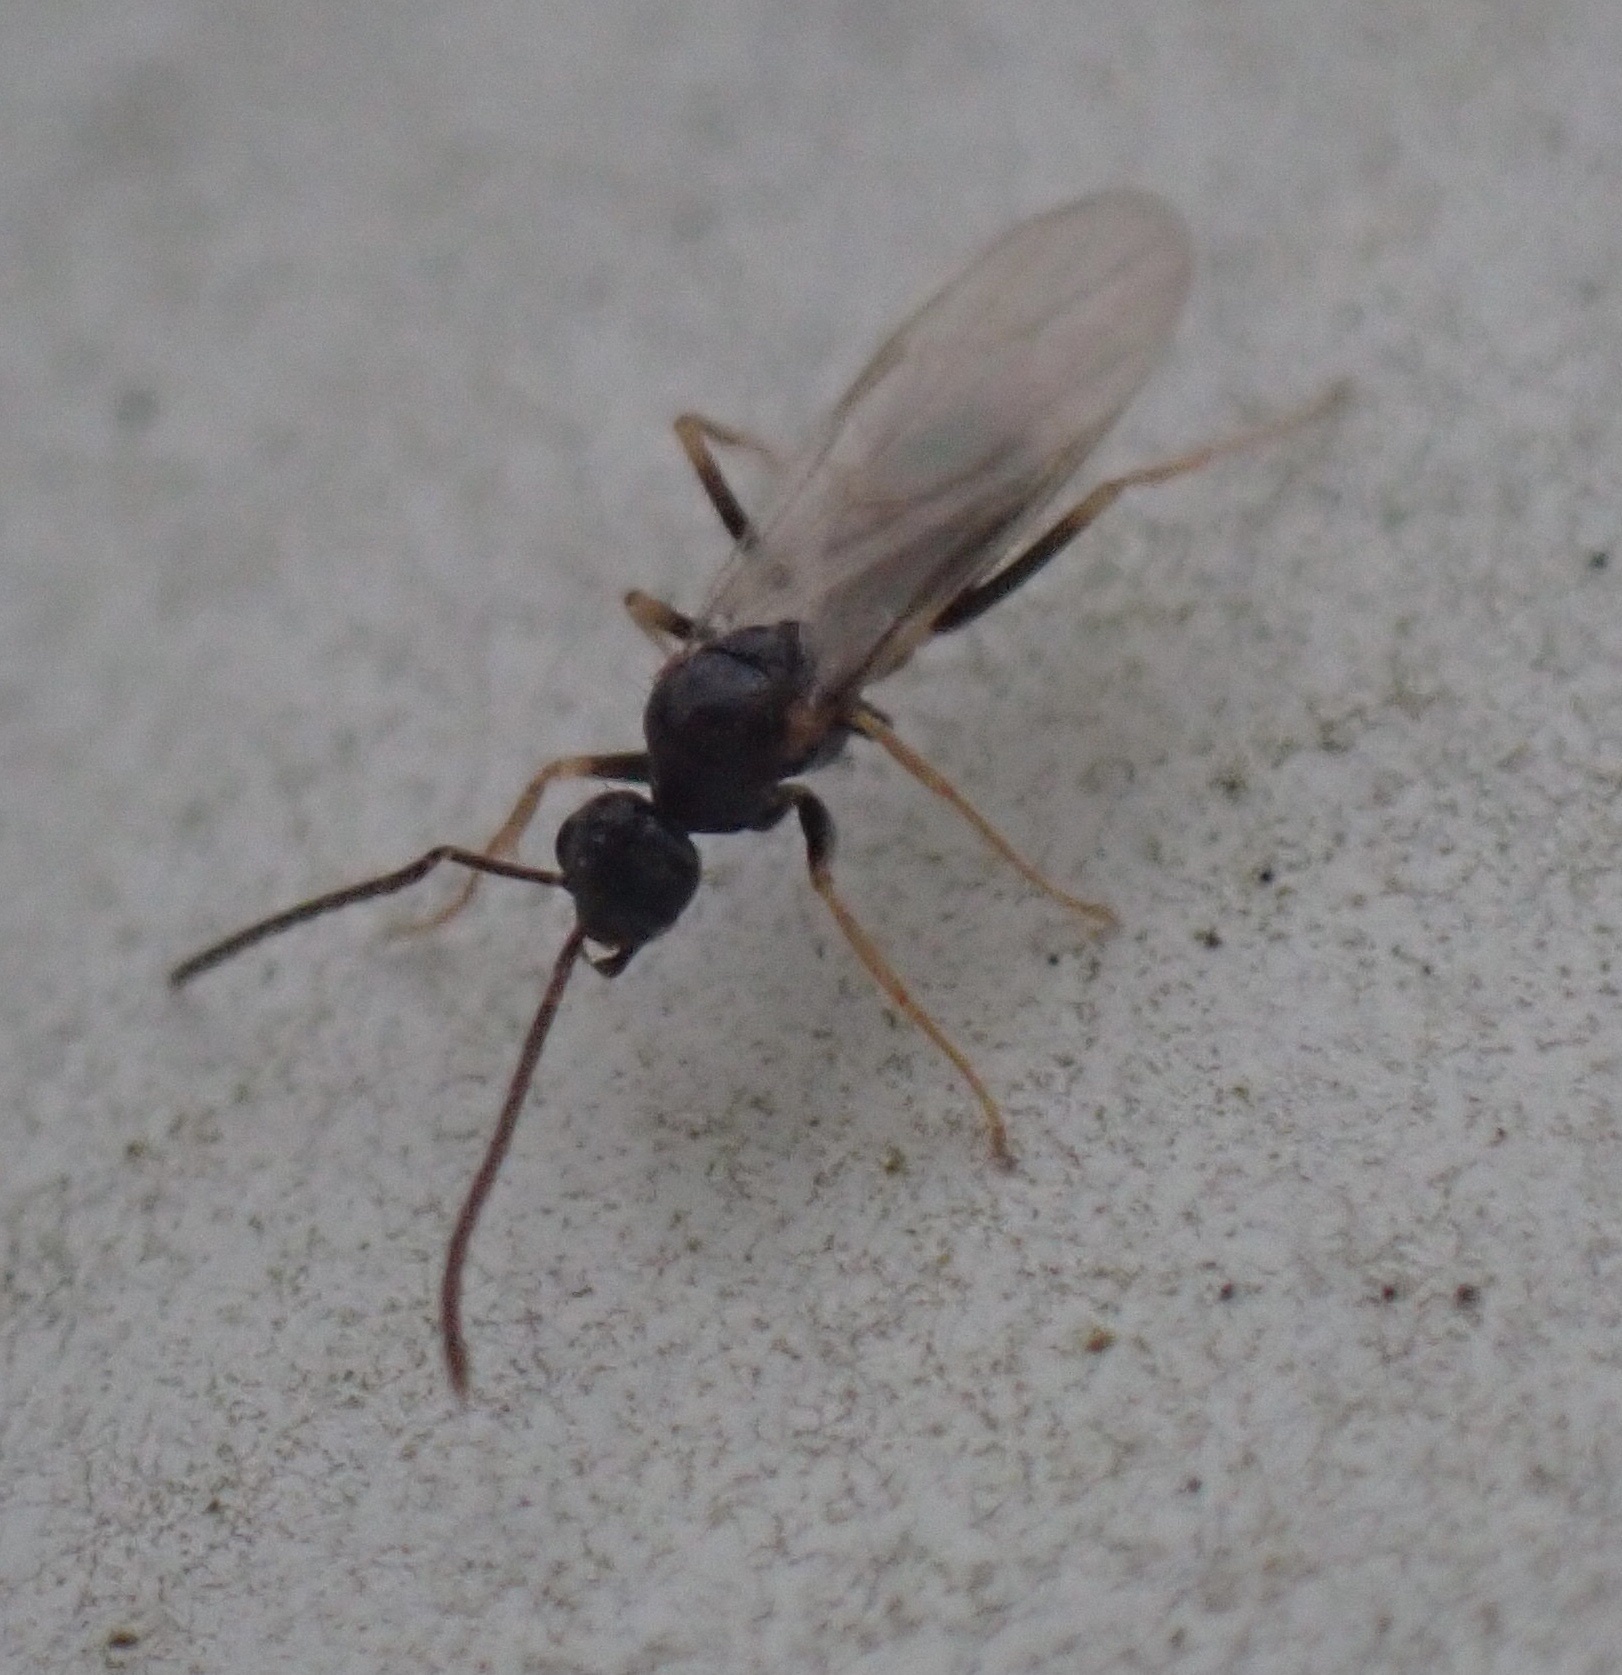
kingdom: Animalia
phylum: Arthropoda
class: Insecta
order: Hymenoptera
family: Formicidae
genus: Prenolepis
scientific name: Prenolepis imparis
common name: Small honey ant
